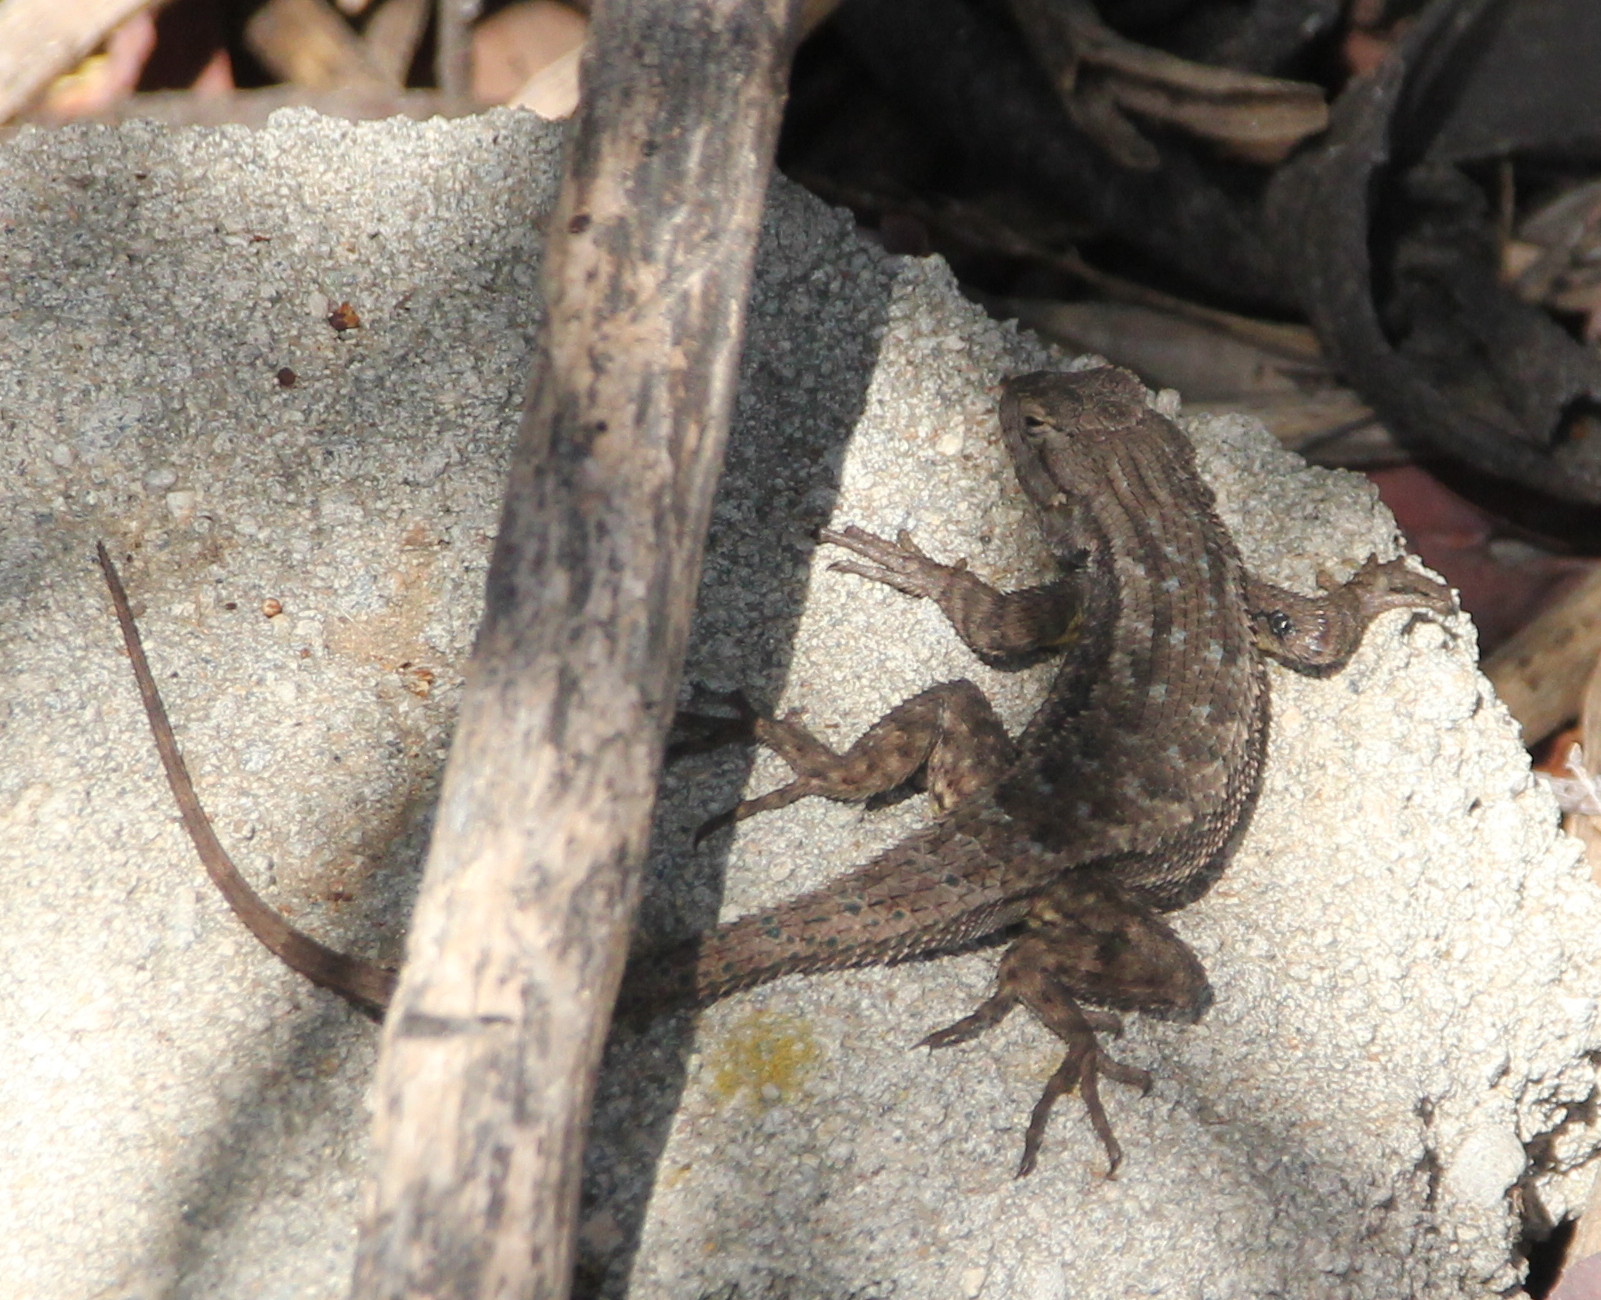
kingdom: Animalia
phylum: Chordata
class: Squamata
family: Phrynosomatidae
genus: Sceloporus
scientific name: Sceloporus occidentalis
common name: Western fence lizard
